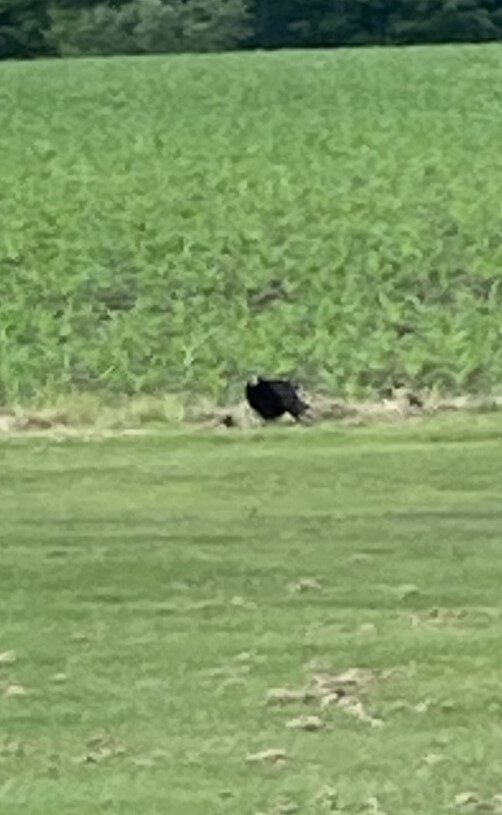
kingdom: Animalia
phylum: Chordata
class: Aves
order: Accipitriformes
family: Cathartidae
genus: Cathartes
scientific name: Cathartes aura
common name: Turkey vulture
